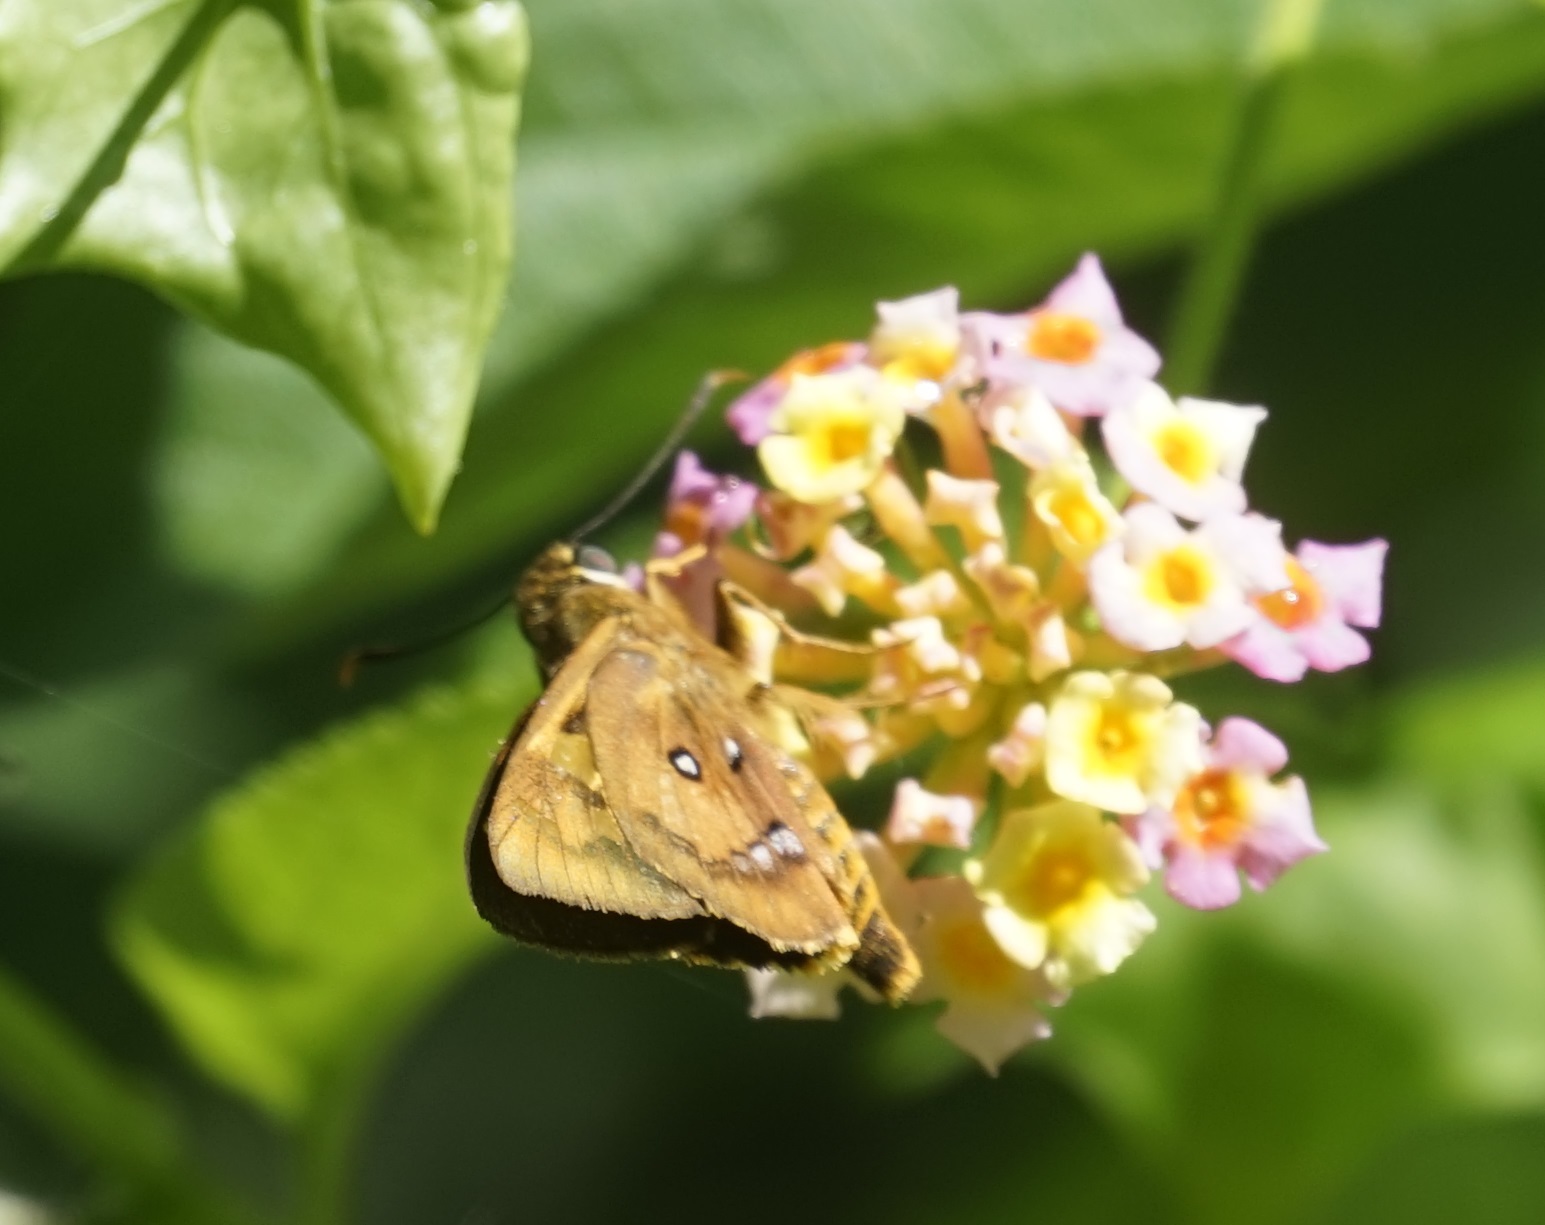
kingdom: Animalia
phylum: Arthropoda
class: Insecta
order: Lepidoptera
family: Hesperiidae
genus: Trapezites
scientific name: Trapezites symmomus
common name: Splendid ochre
